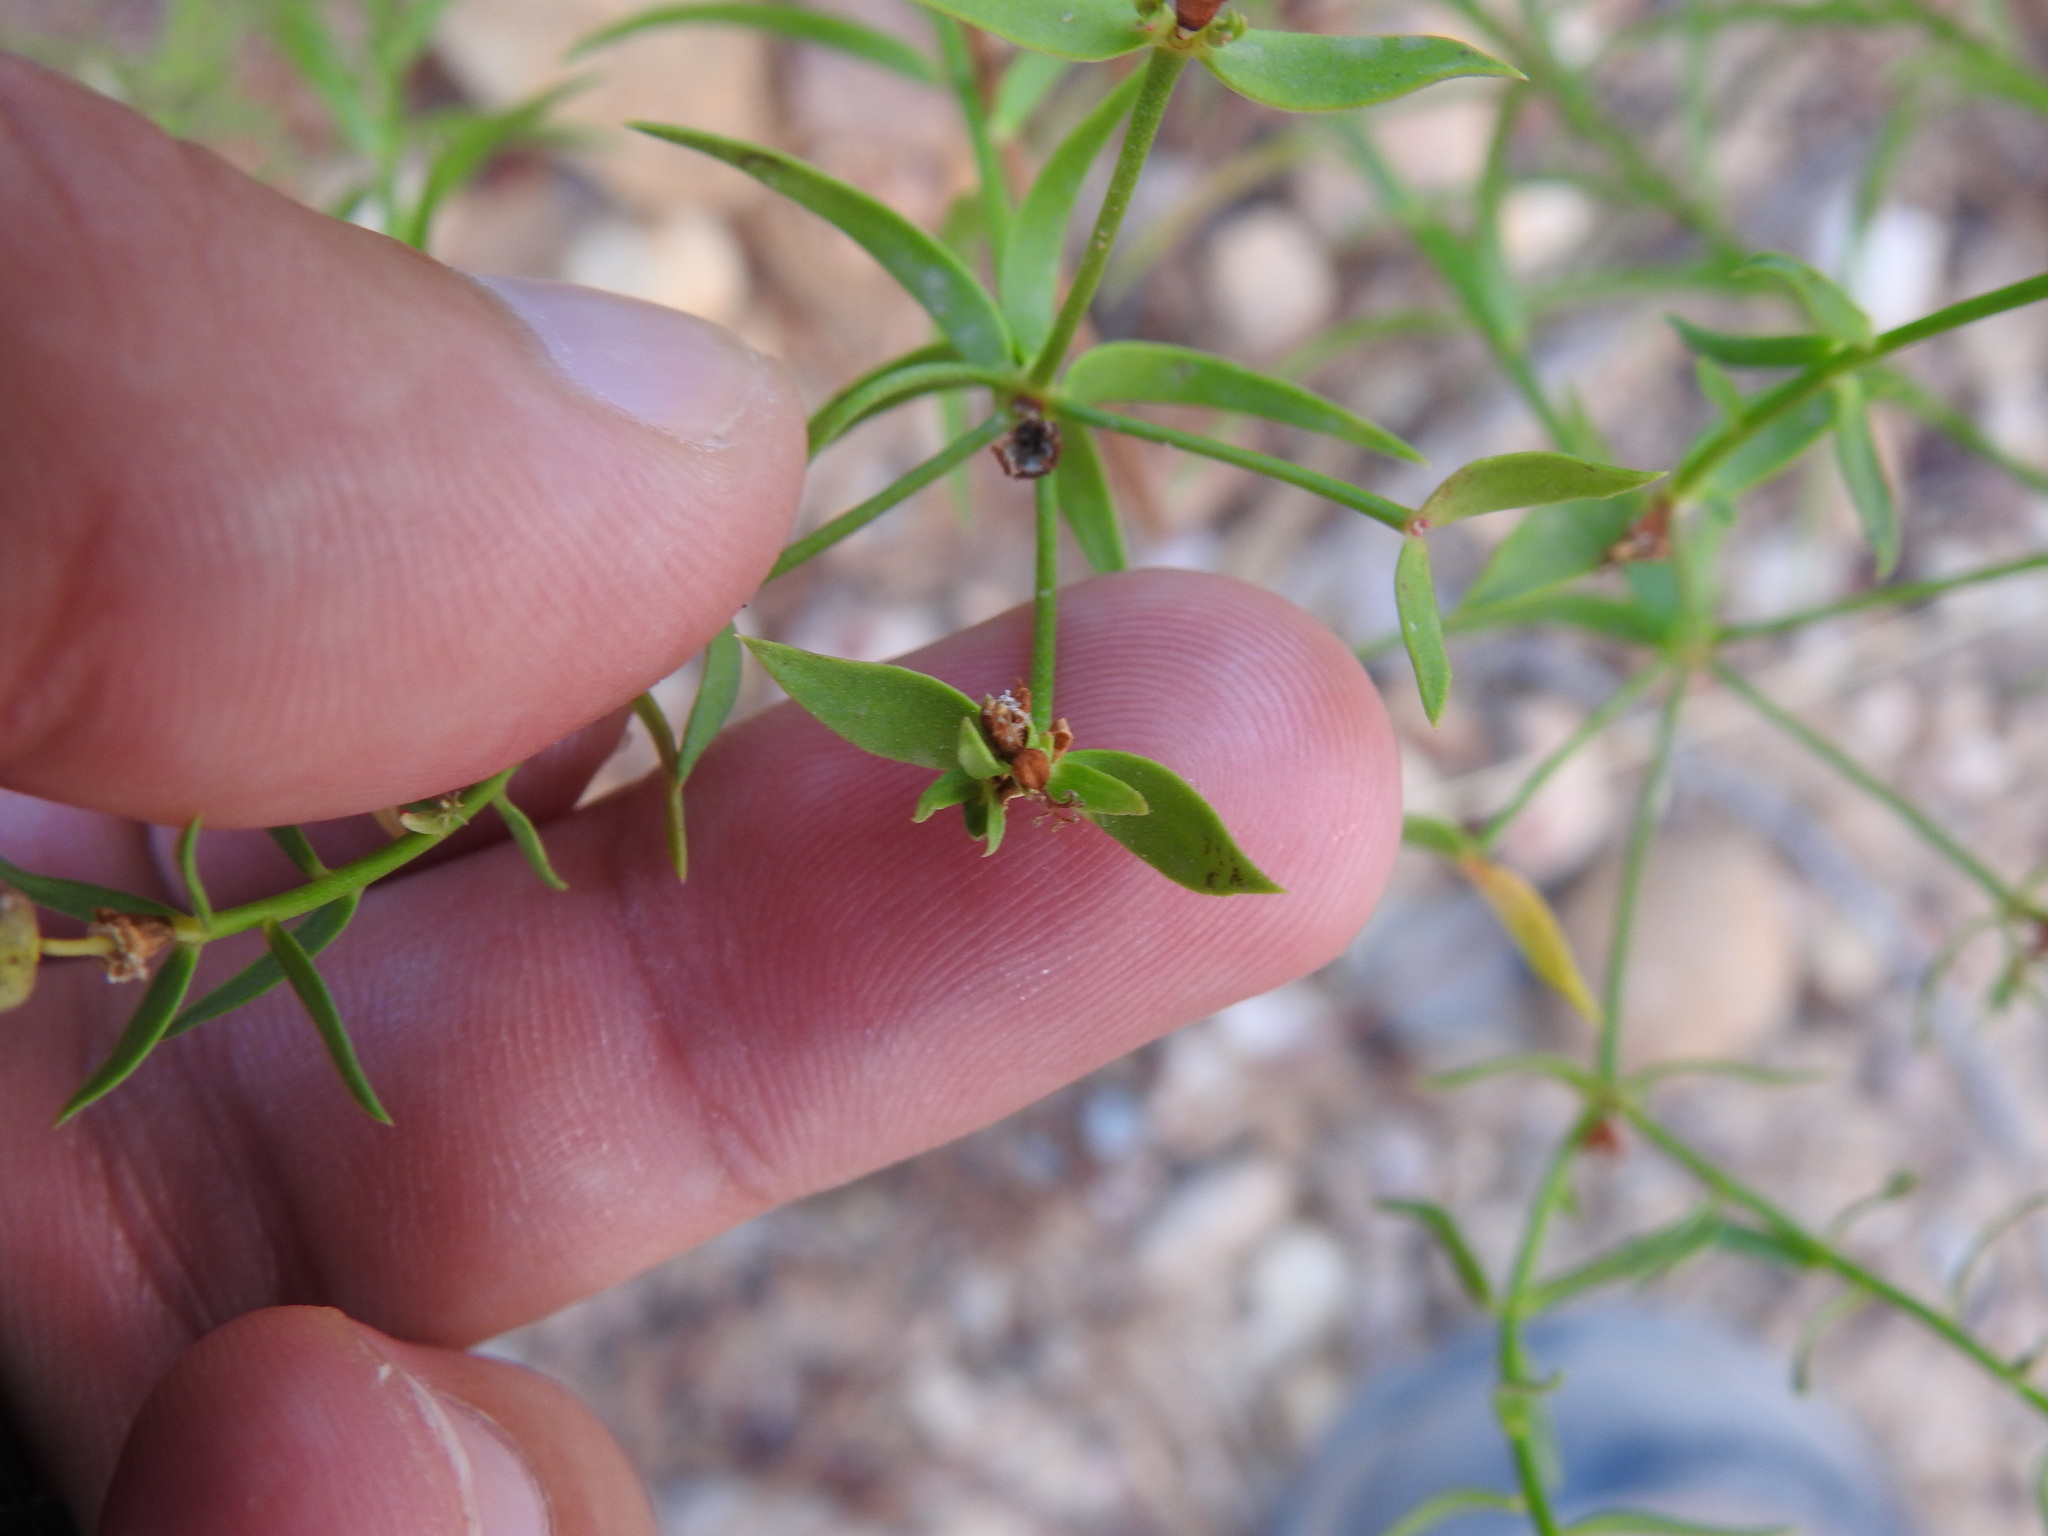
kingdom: Plantae
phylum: Tracheophyta
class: Magnoliopsida
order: Malpighiales
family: Euphorbiaceae
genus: Euphorbia
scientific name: Euphorbia boetica
